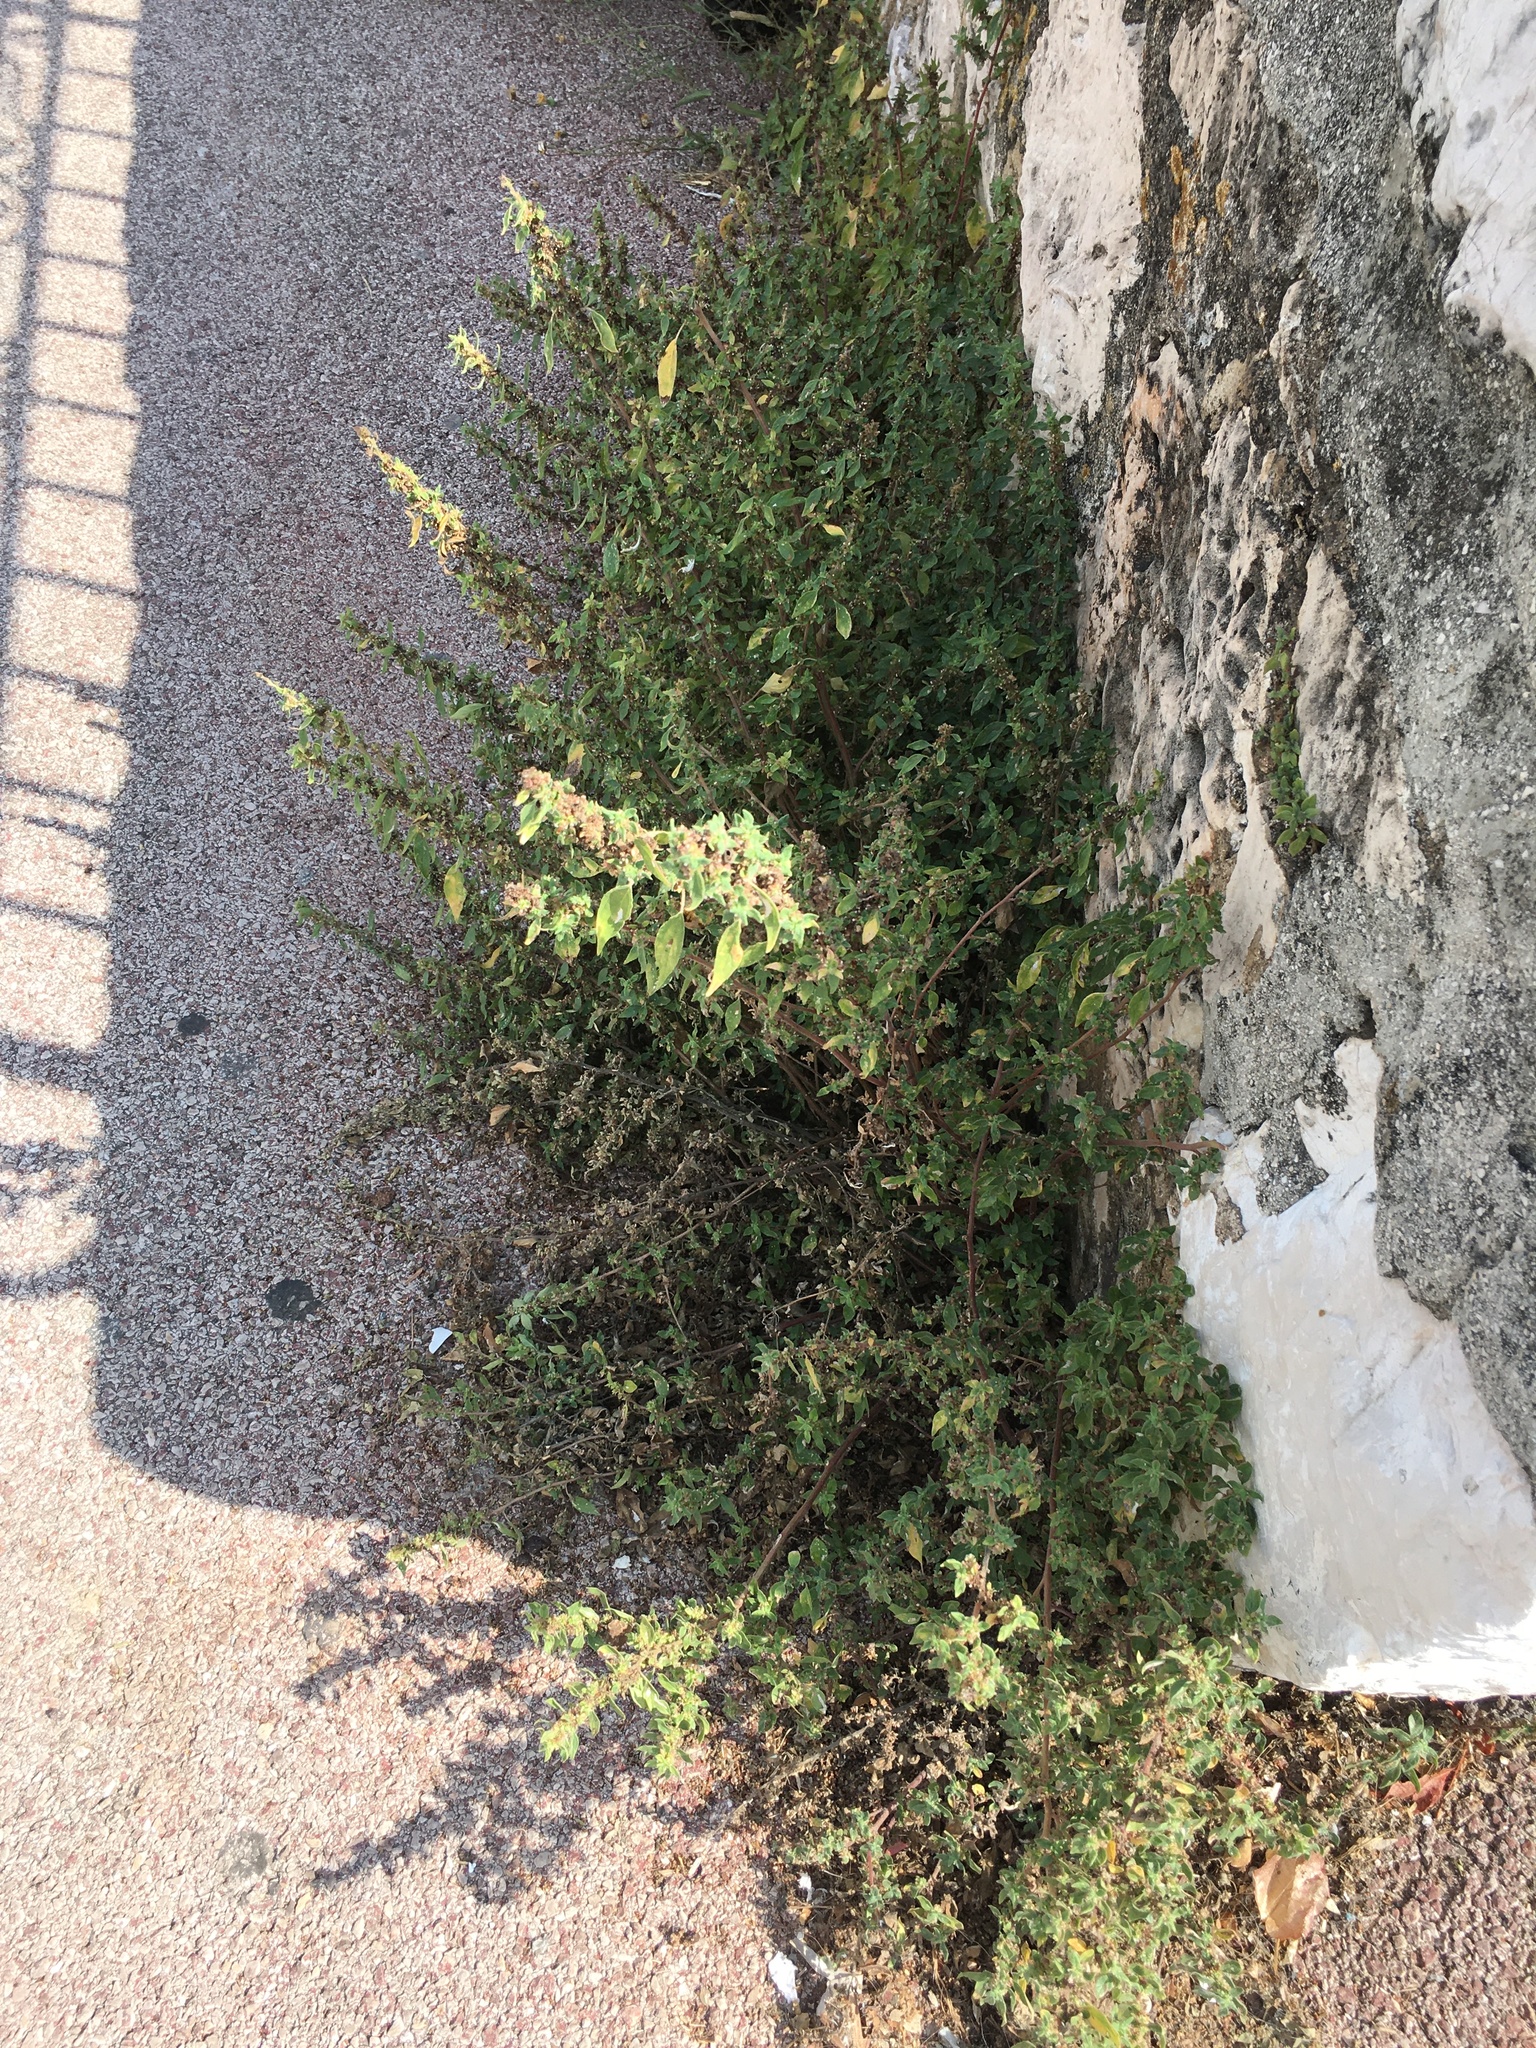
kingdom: Plantae
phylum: Tracheophyta
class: Magnoliopsida
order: Rosales
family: Urticaceae
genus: Parietaria
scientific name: Parietaria judaica
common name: Pellitory-of-the-wall
